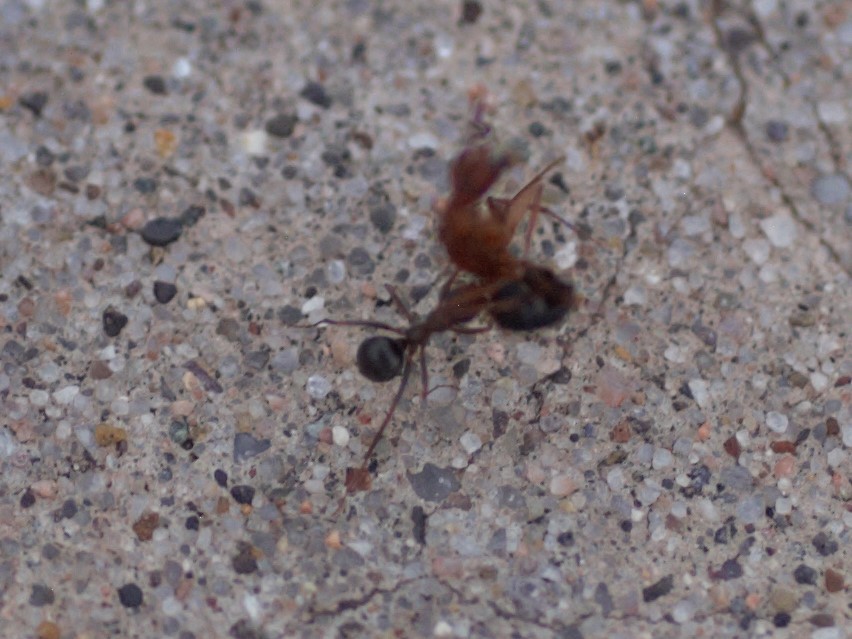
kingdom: Animalia
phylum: Arthropoda
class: Insecta
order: Hymenoptera
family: Formicidae
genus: Formica
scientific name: Formica
